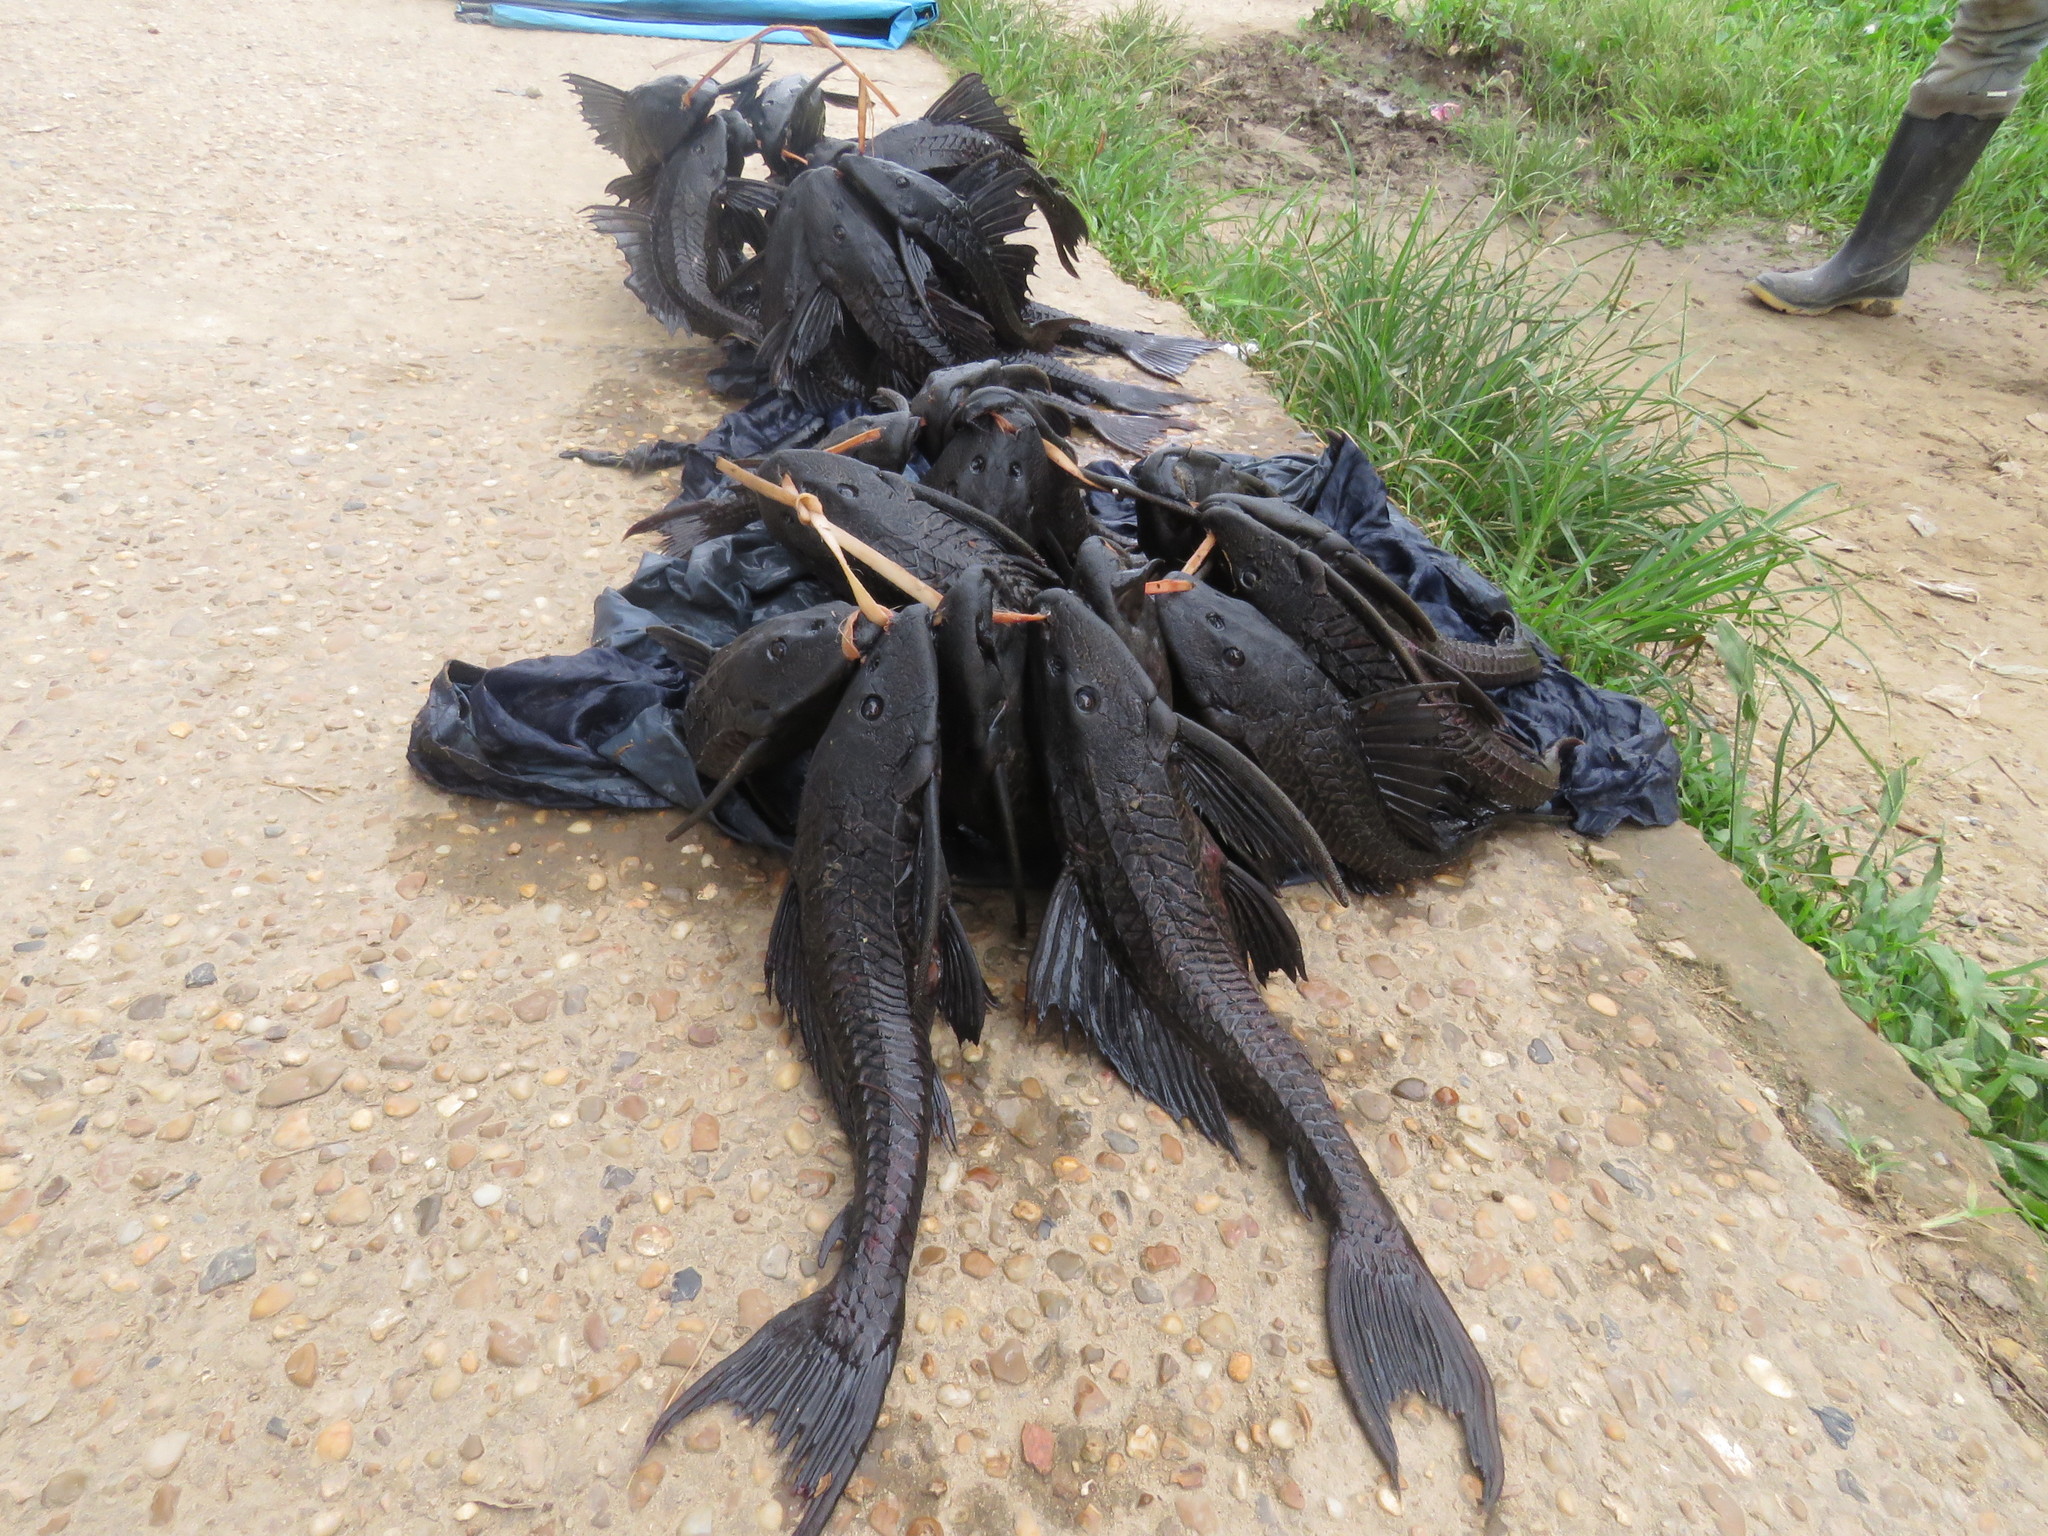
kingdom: Animalia
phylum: Chordata
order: Siluriformes
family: Loricariidae
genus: Pterygoplichthys
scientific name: Pterygoplichthys pardalis
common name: Amazon sailfin catfish
